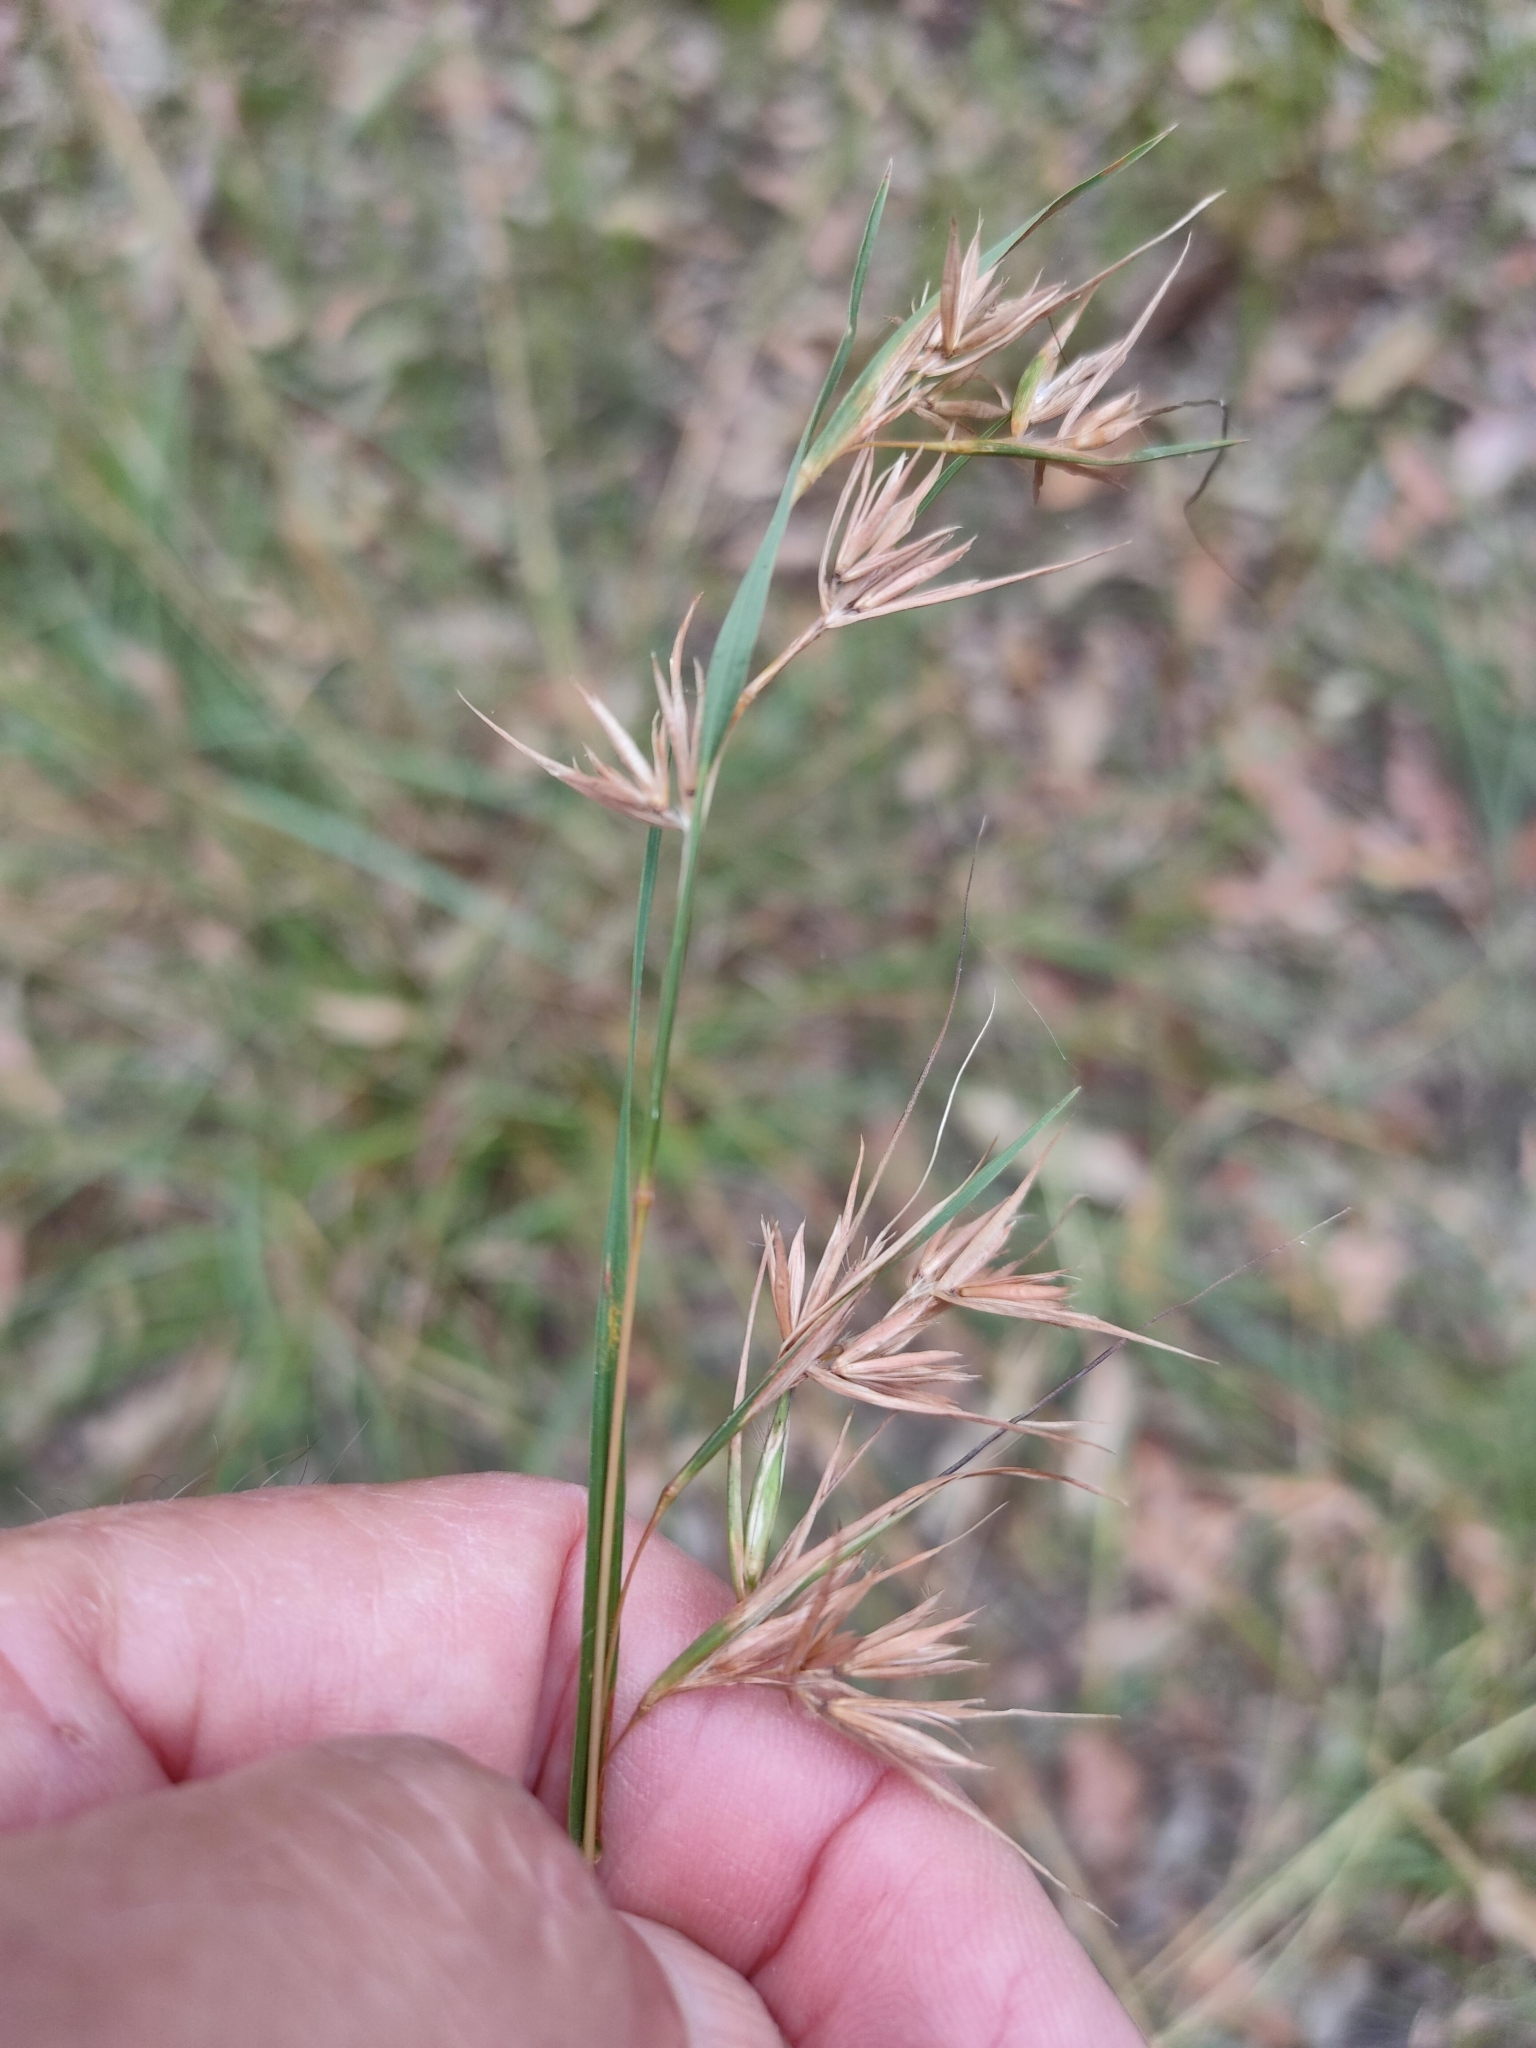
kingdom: Plantae
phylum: Tracheophyta
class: Liliopsida
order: Poales
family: Poaceae
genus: Themeda
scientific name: Themeda triandra
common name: Kangaroo grass
